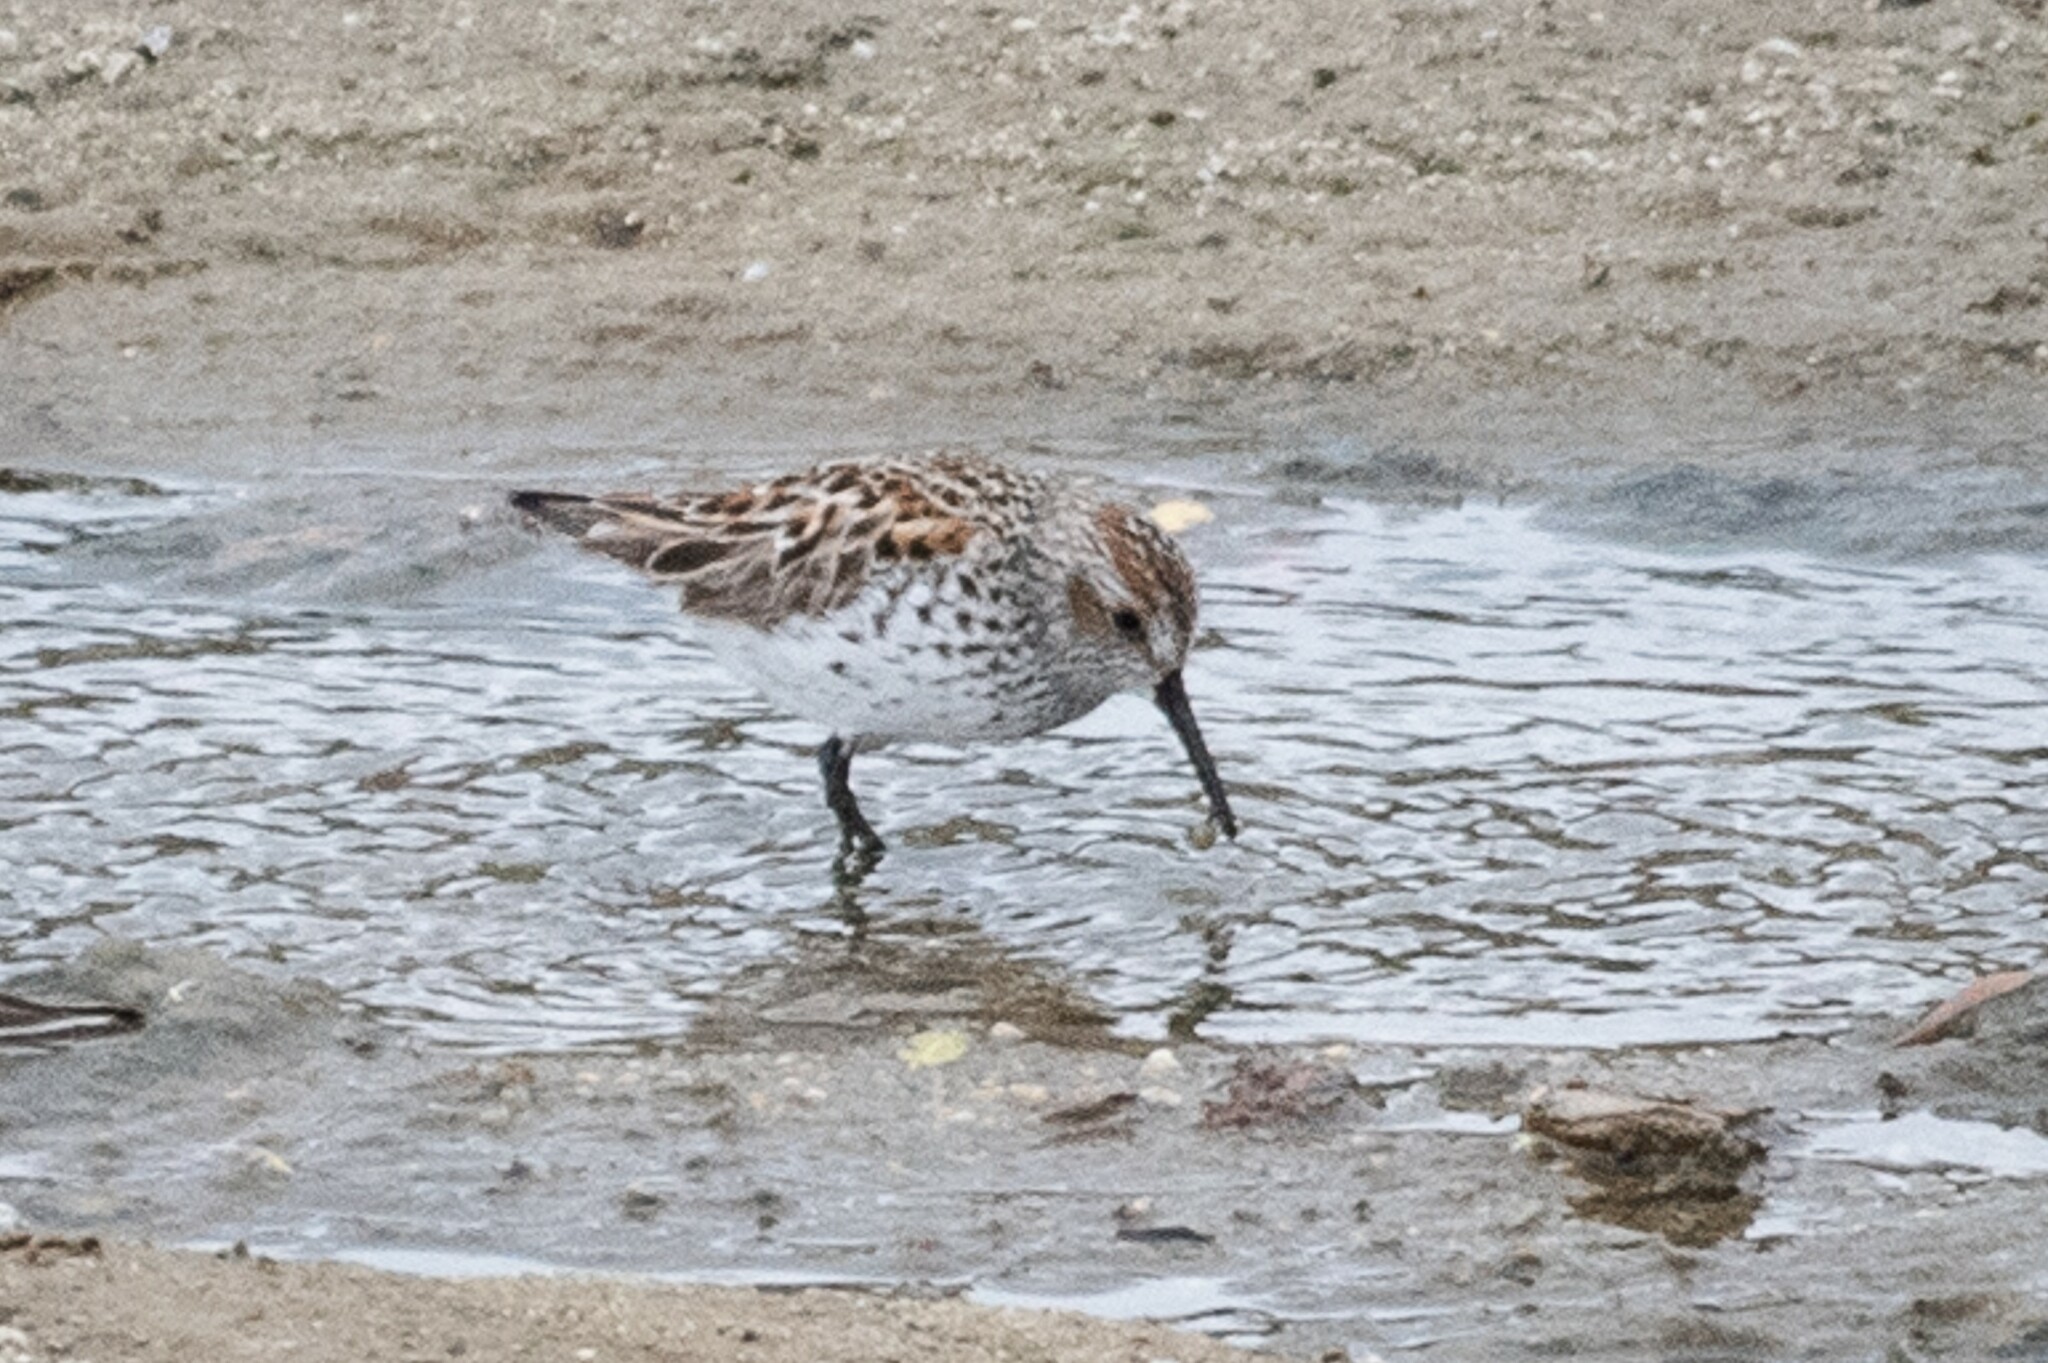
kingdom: Animalia
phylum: Chordata
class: Aves
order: Charadriiformes
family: Scolopacidae
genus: Calidris
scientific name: Calidris mauri
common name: Western sandpiper
